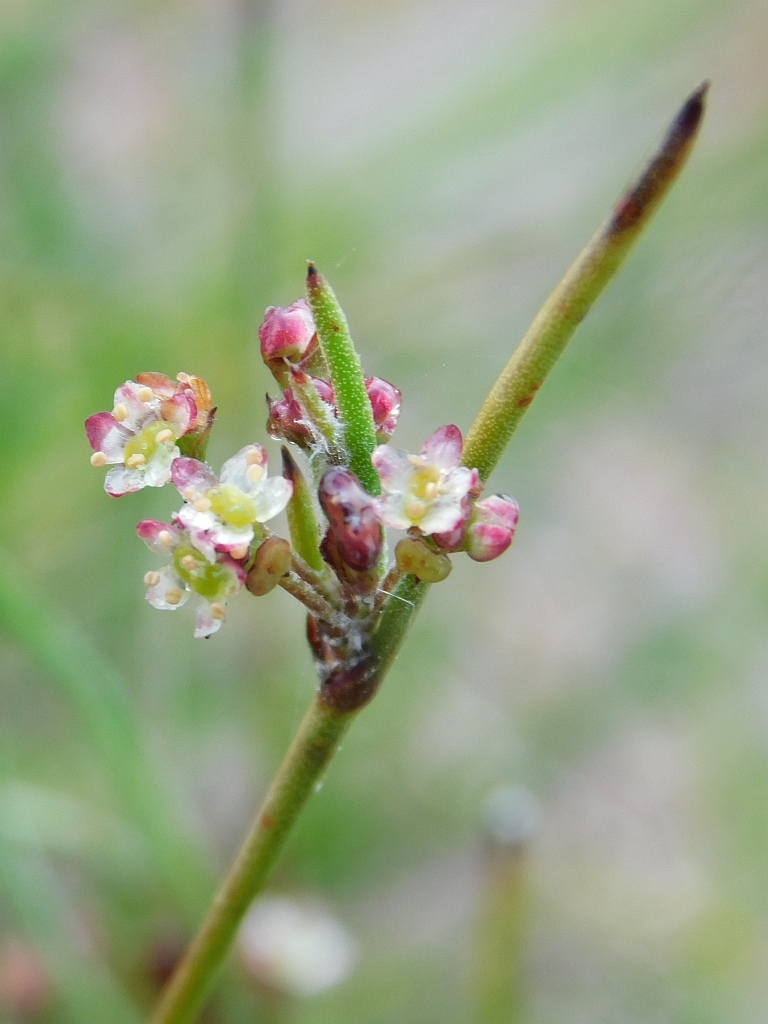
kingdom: Plantae
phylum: Tracheophyta
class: Magnoliopsida
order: Apiales
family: Apiaceae
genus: Centella
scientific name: Centella virgata
